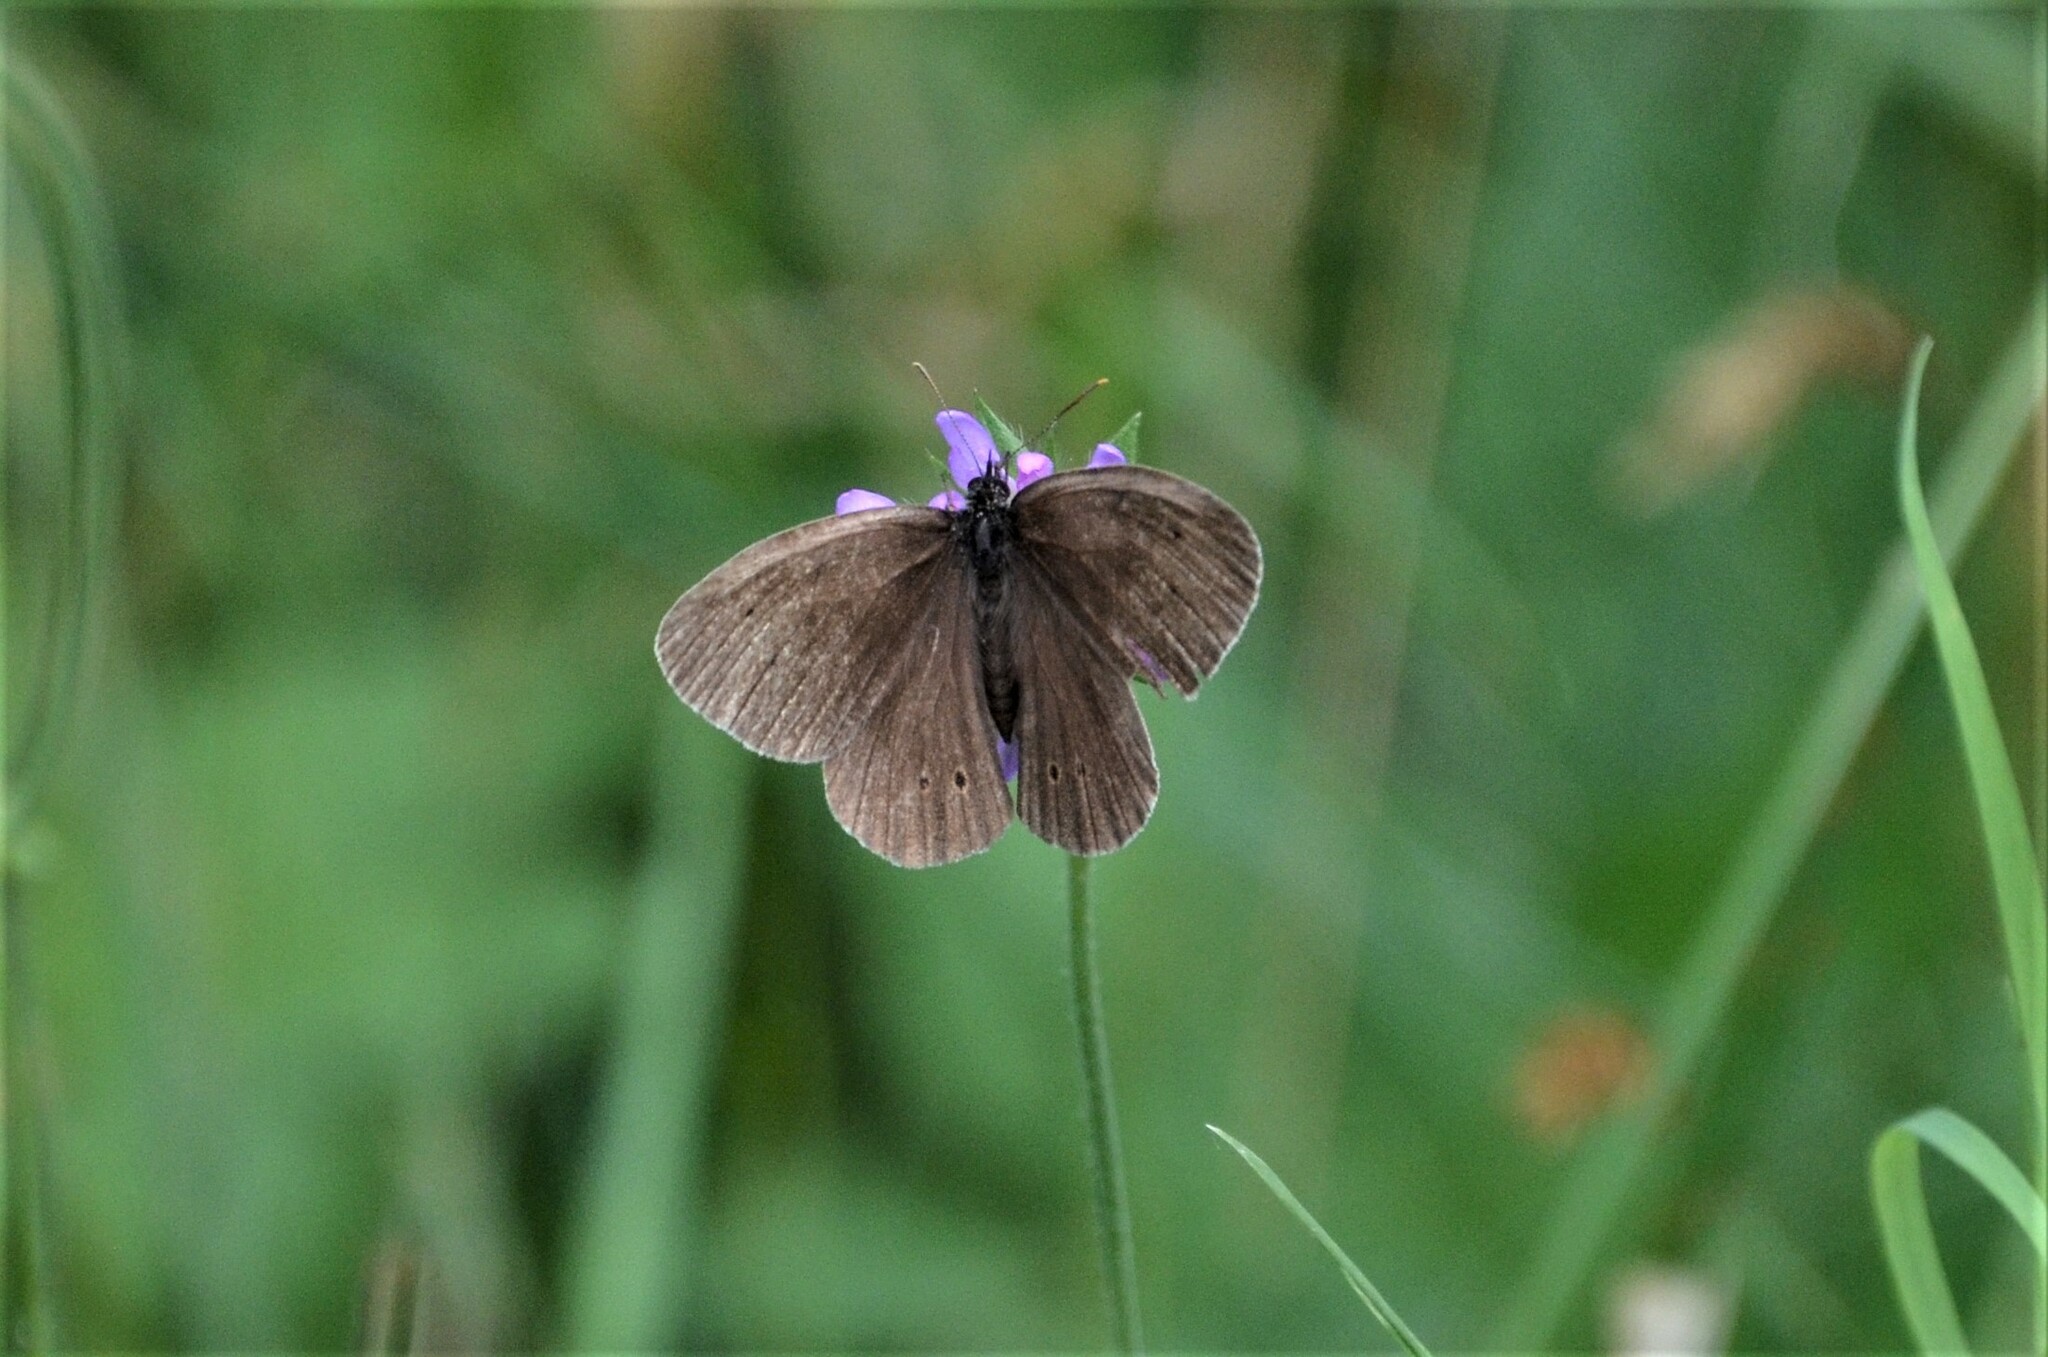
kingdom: Animalia
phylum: Arthropoda
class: Insecta
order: Lepidoptera
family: Nymphalidae
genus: Aphantopus
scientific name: Aphantopus hyperantus
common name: Ringlet
